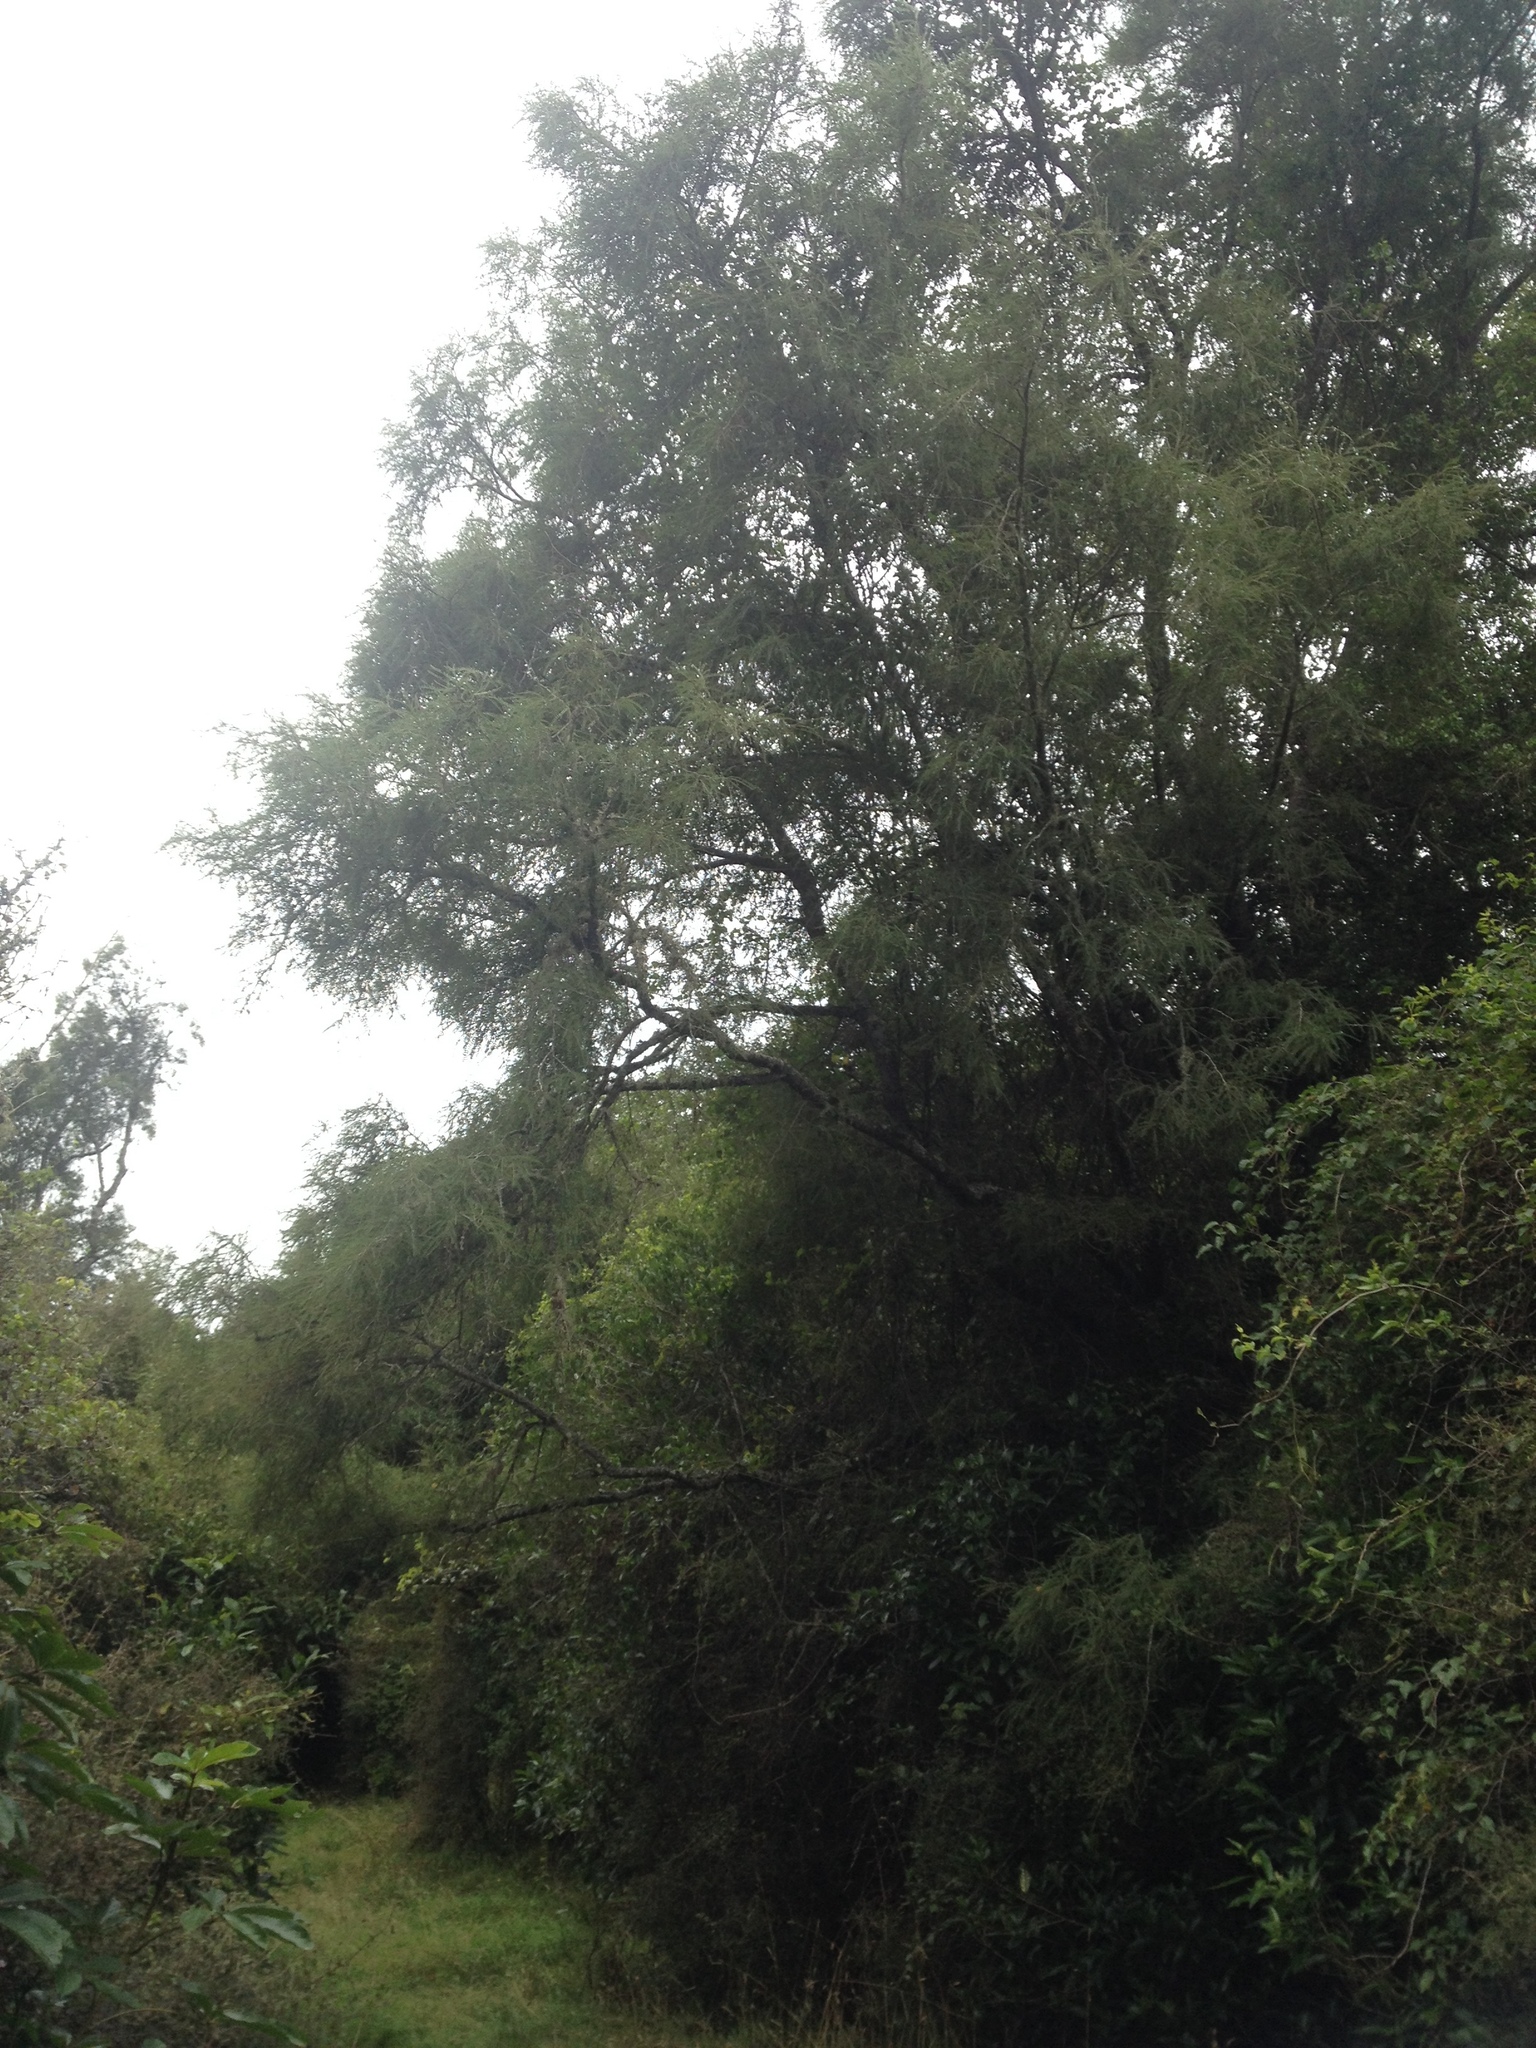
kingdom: Plantae
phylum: Tracheophyta
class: Magnoliopsida
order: Fabales
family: Fabaceae
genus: Sophora
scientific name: Sophora microphylla
